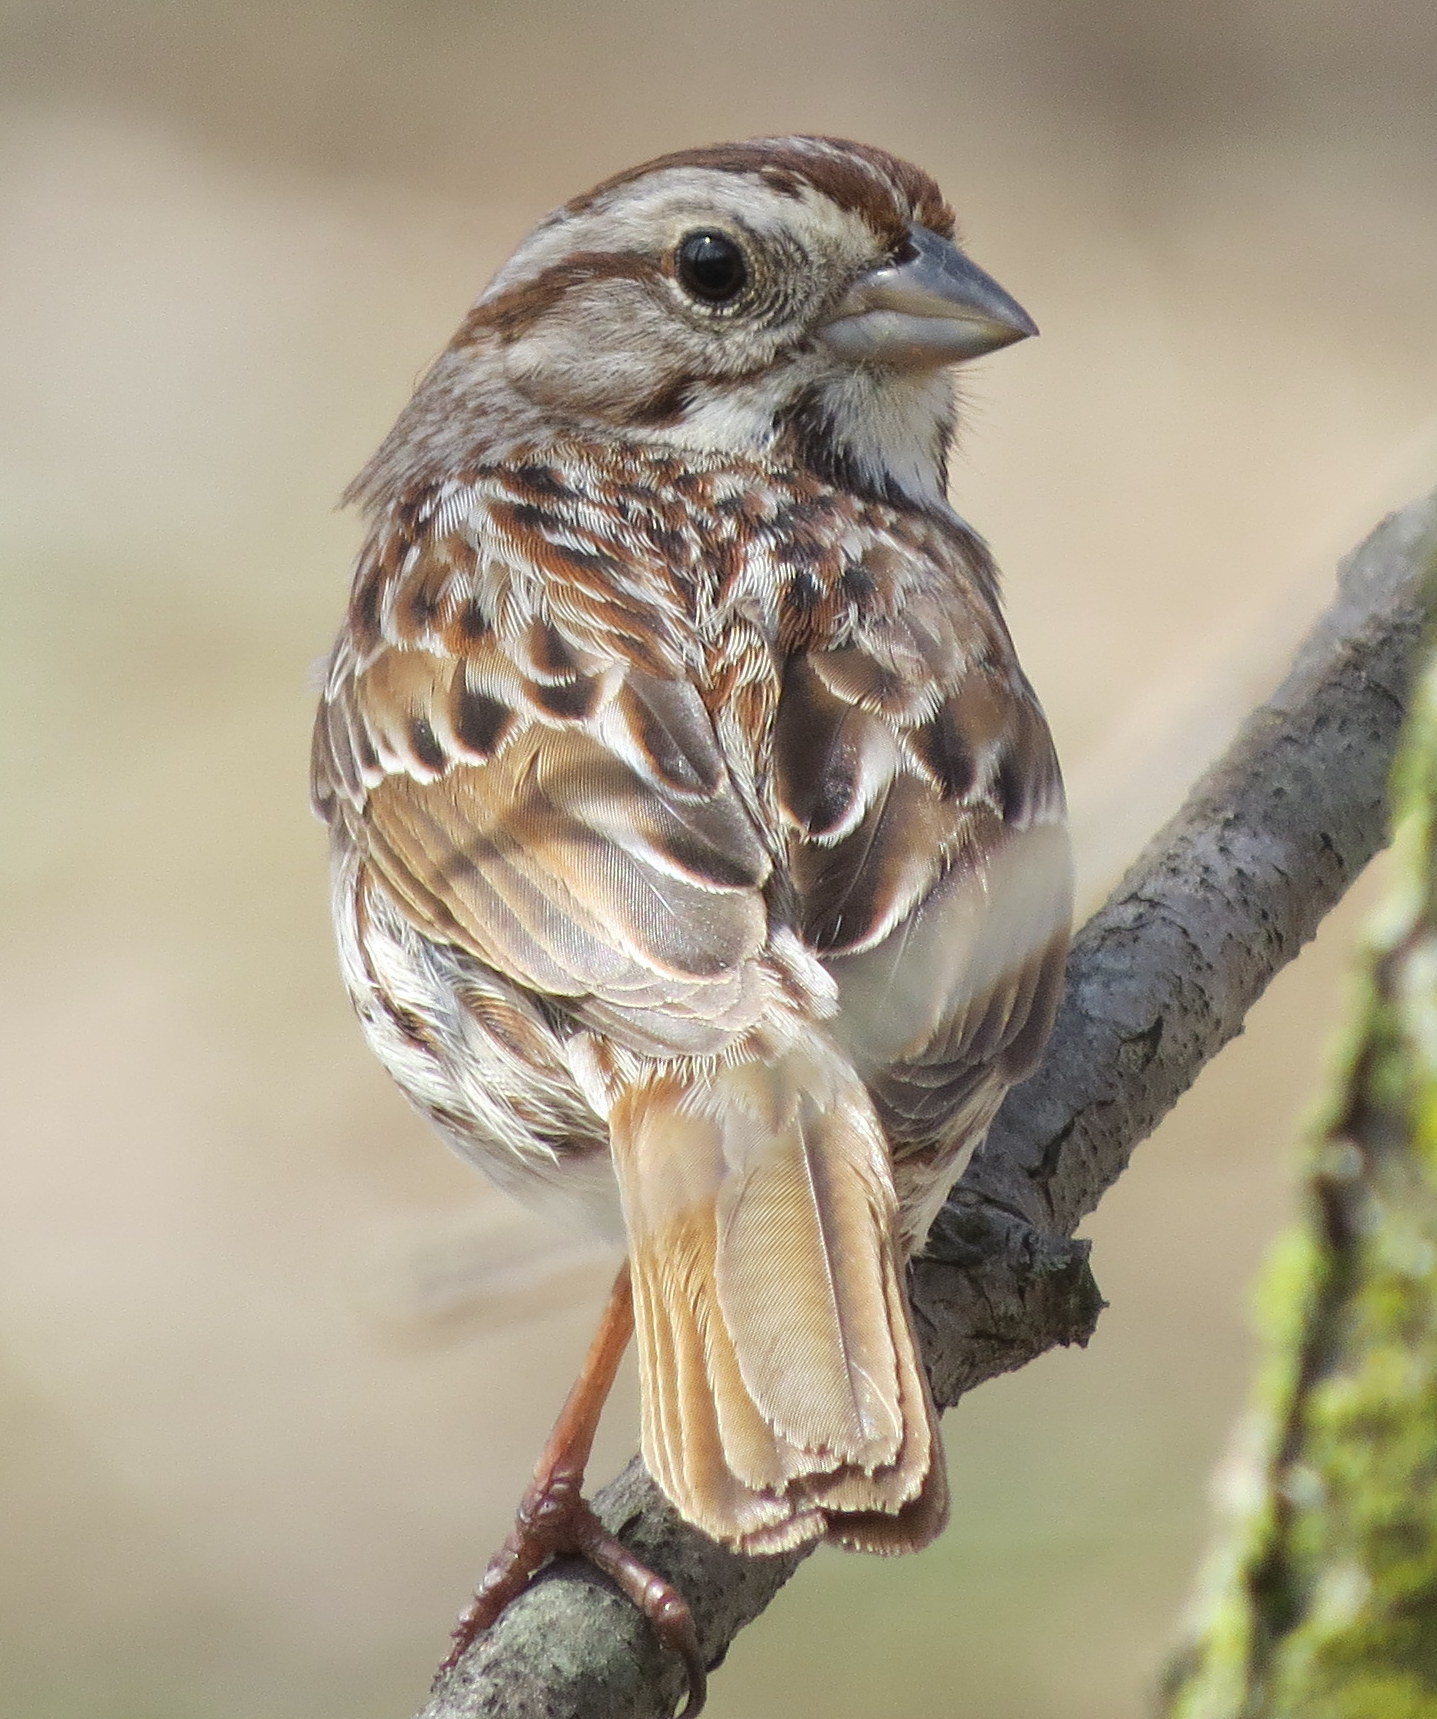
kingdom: Animalia
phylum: Chordata
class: Aves
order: Passeriformes
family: Passerellidae
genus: Melospiza
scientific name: Melospiza melodia
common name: Song sparrow
